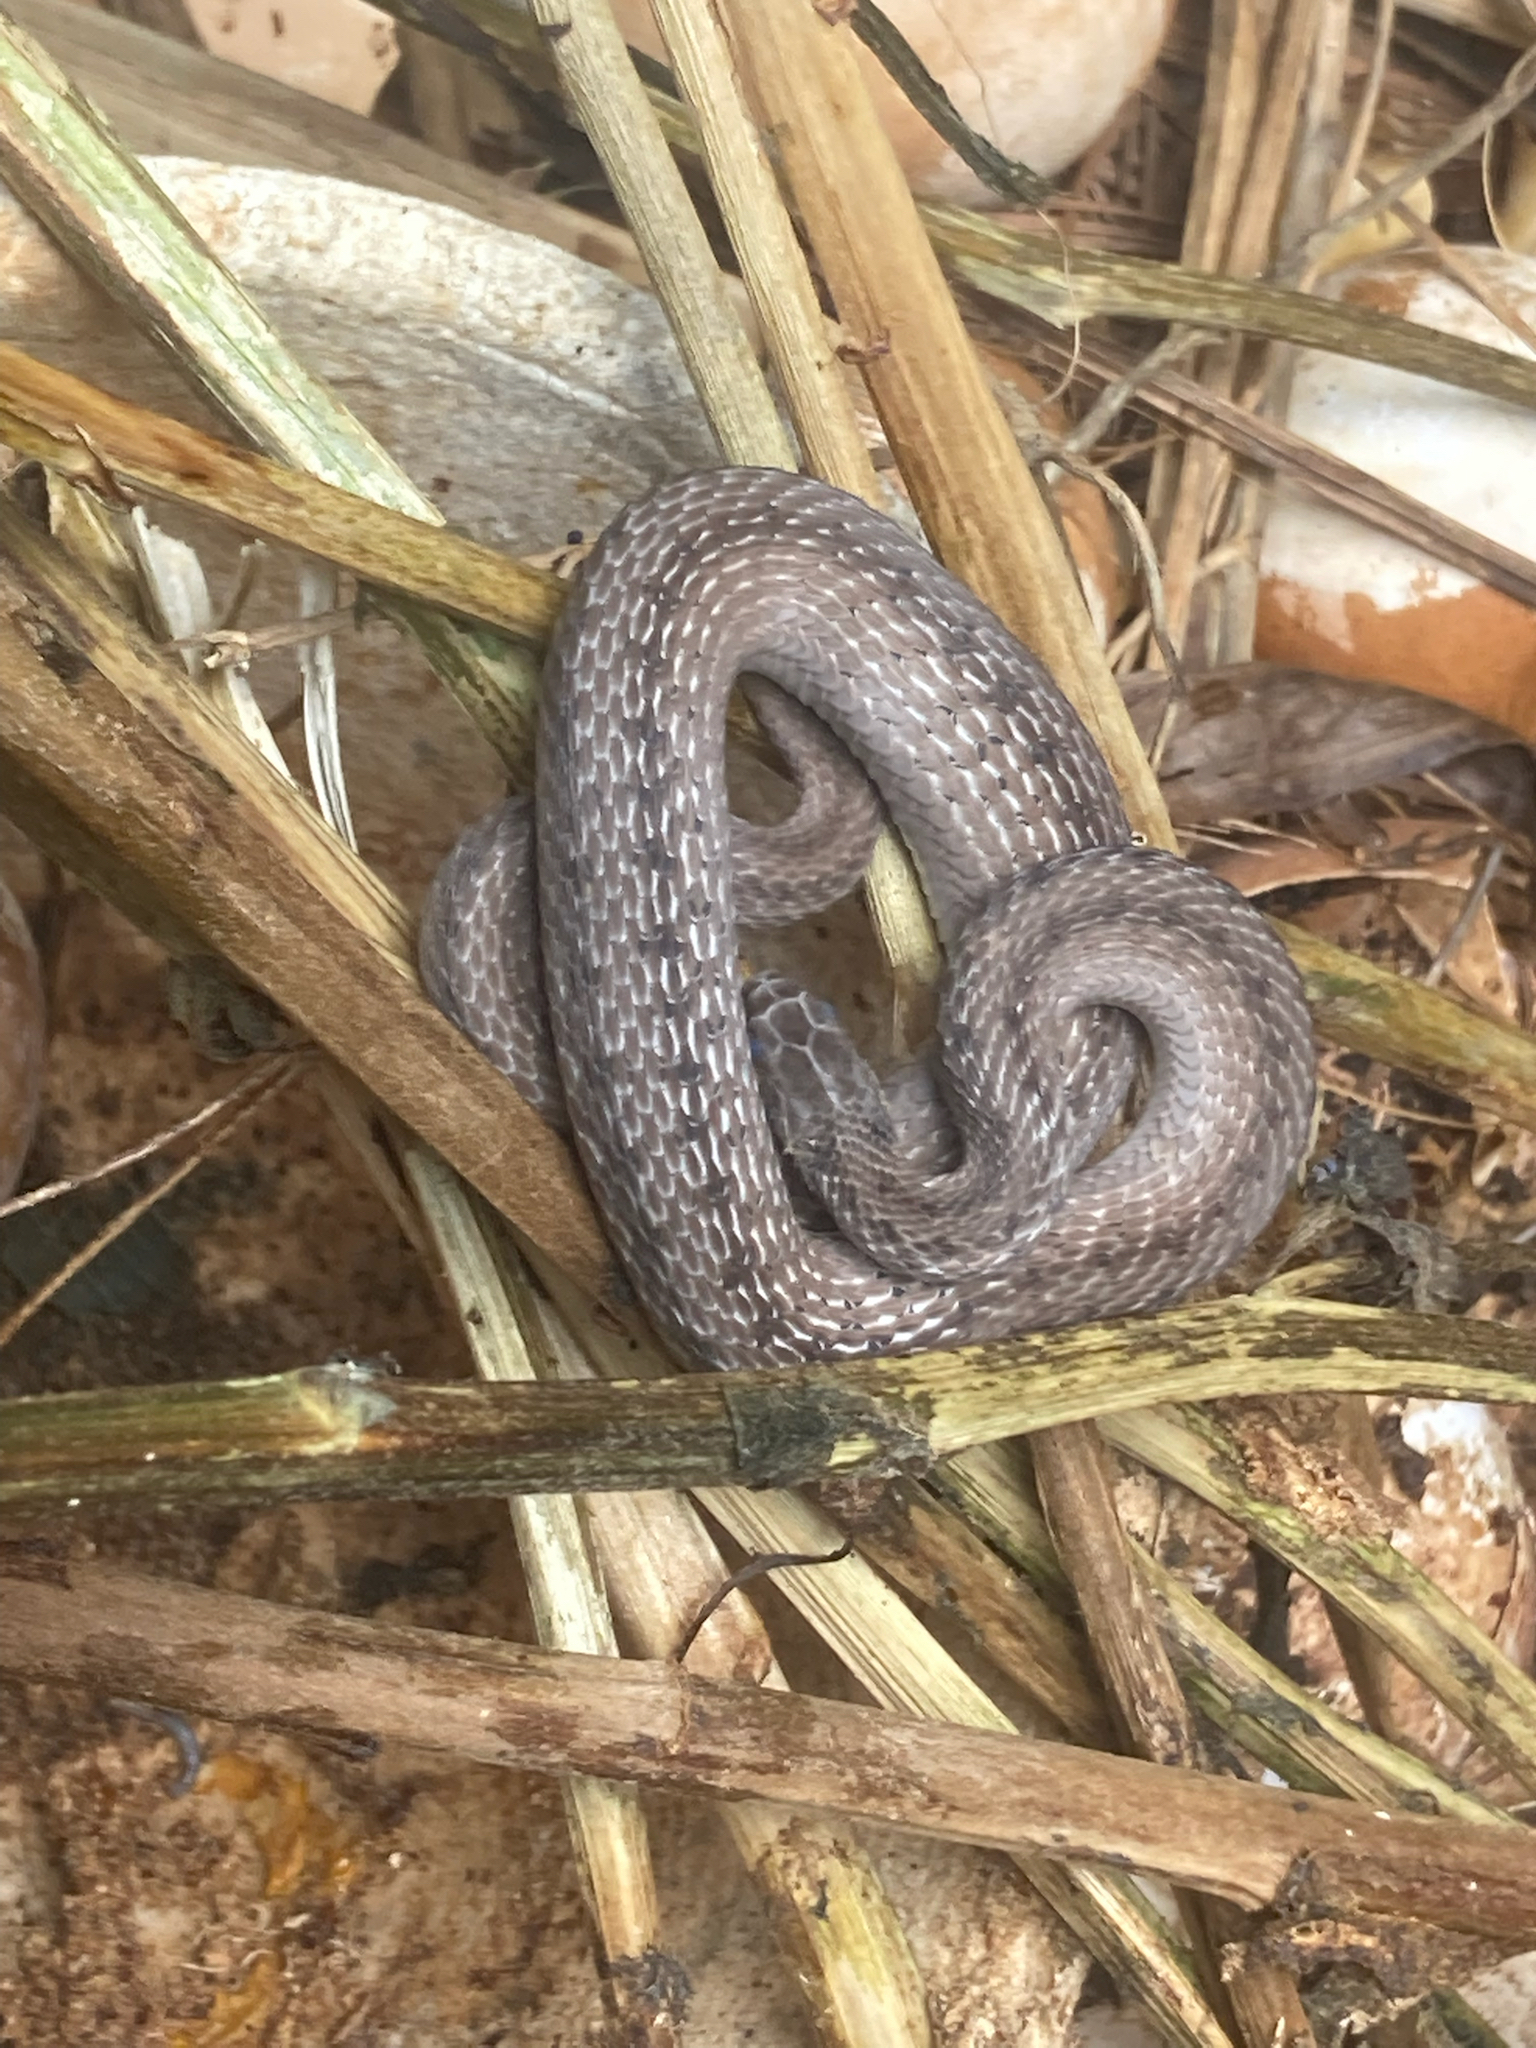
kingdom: Animalia
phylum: Chordata
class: Squamata
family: Colubridae
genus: Storeria
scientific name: Storeria dekayi
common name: (dekay’s) brown snake
